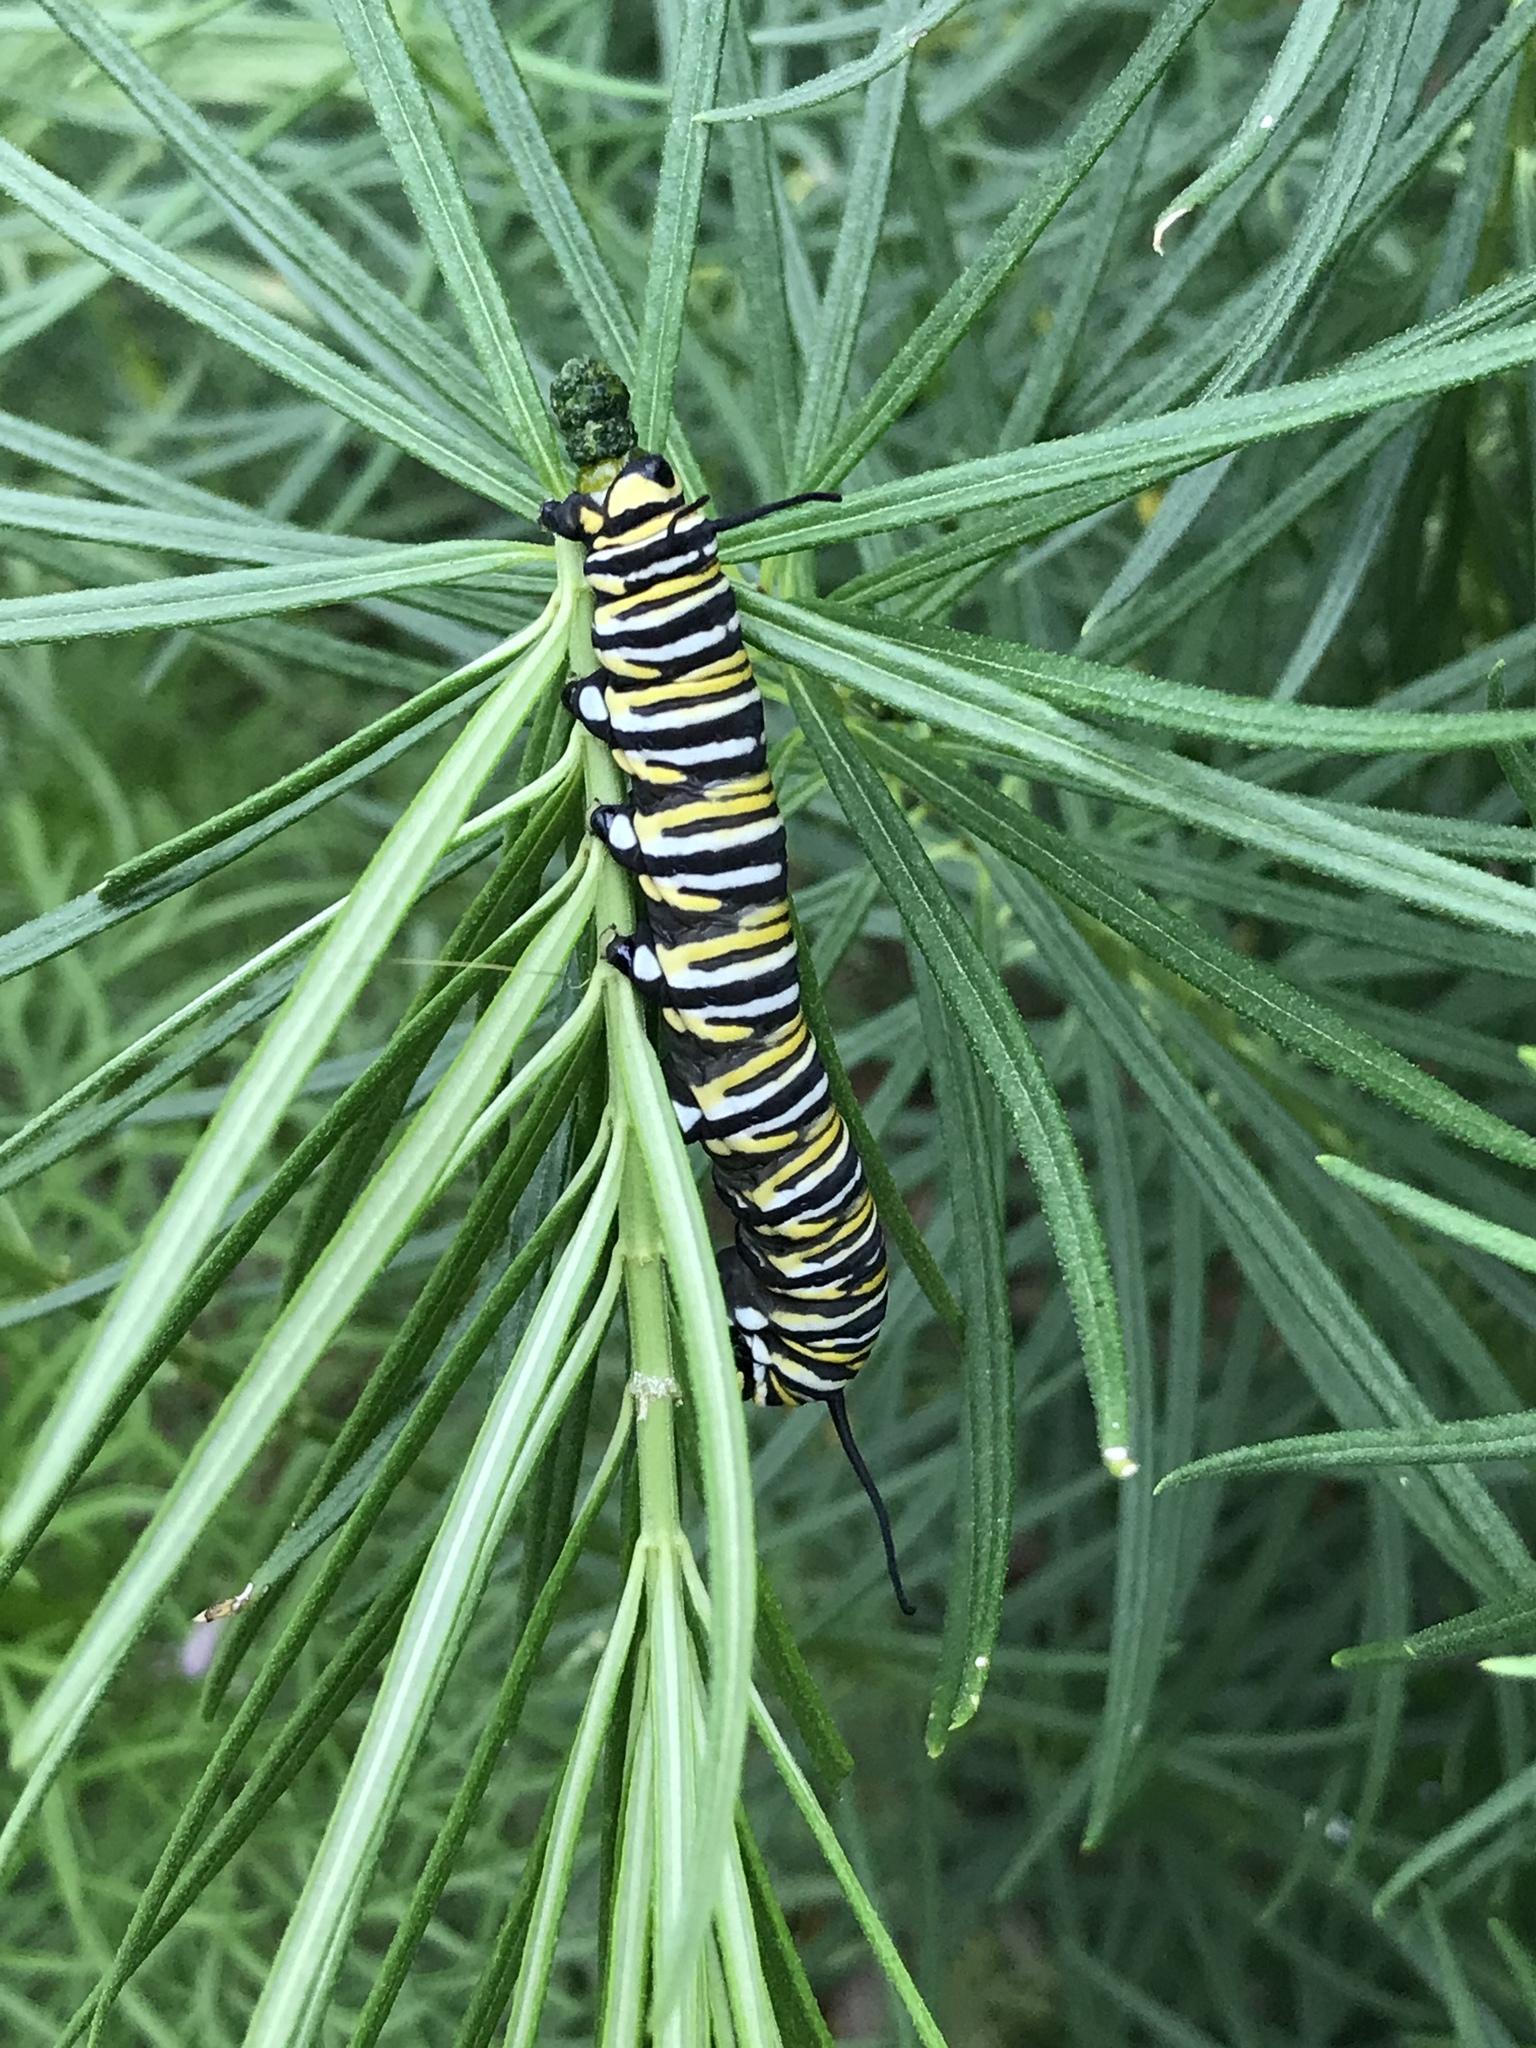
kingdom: Animalia
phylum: Arthropoda
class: Insecta
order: Lepidoptera
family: Nymphalidae
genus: Danaus
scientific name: Danaus plexippus
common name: Monarch
